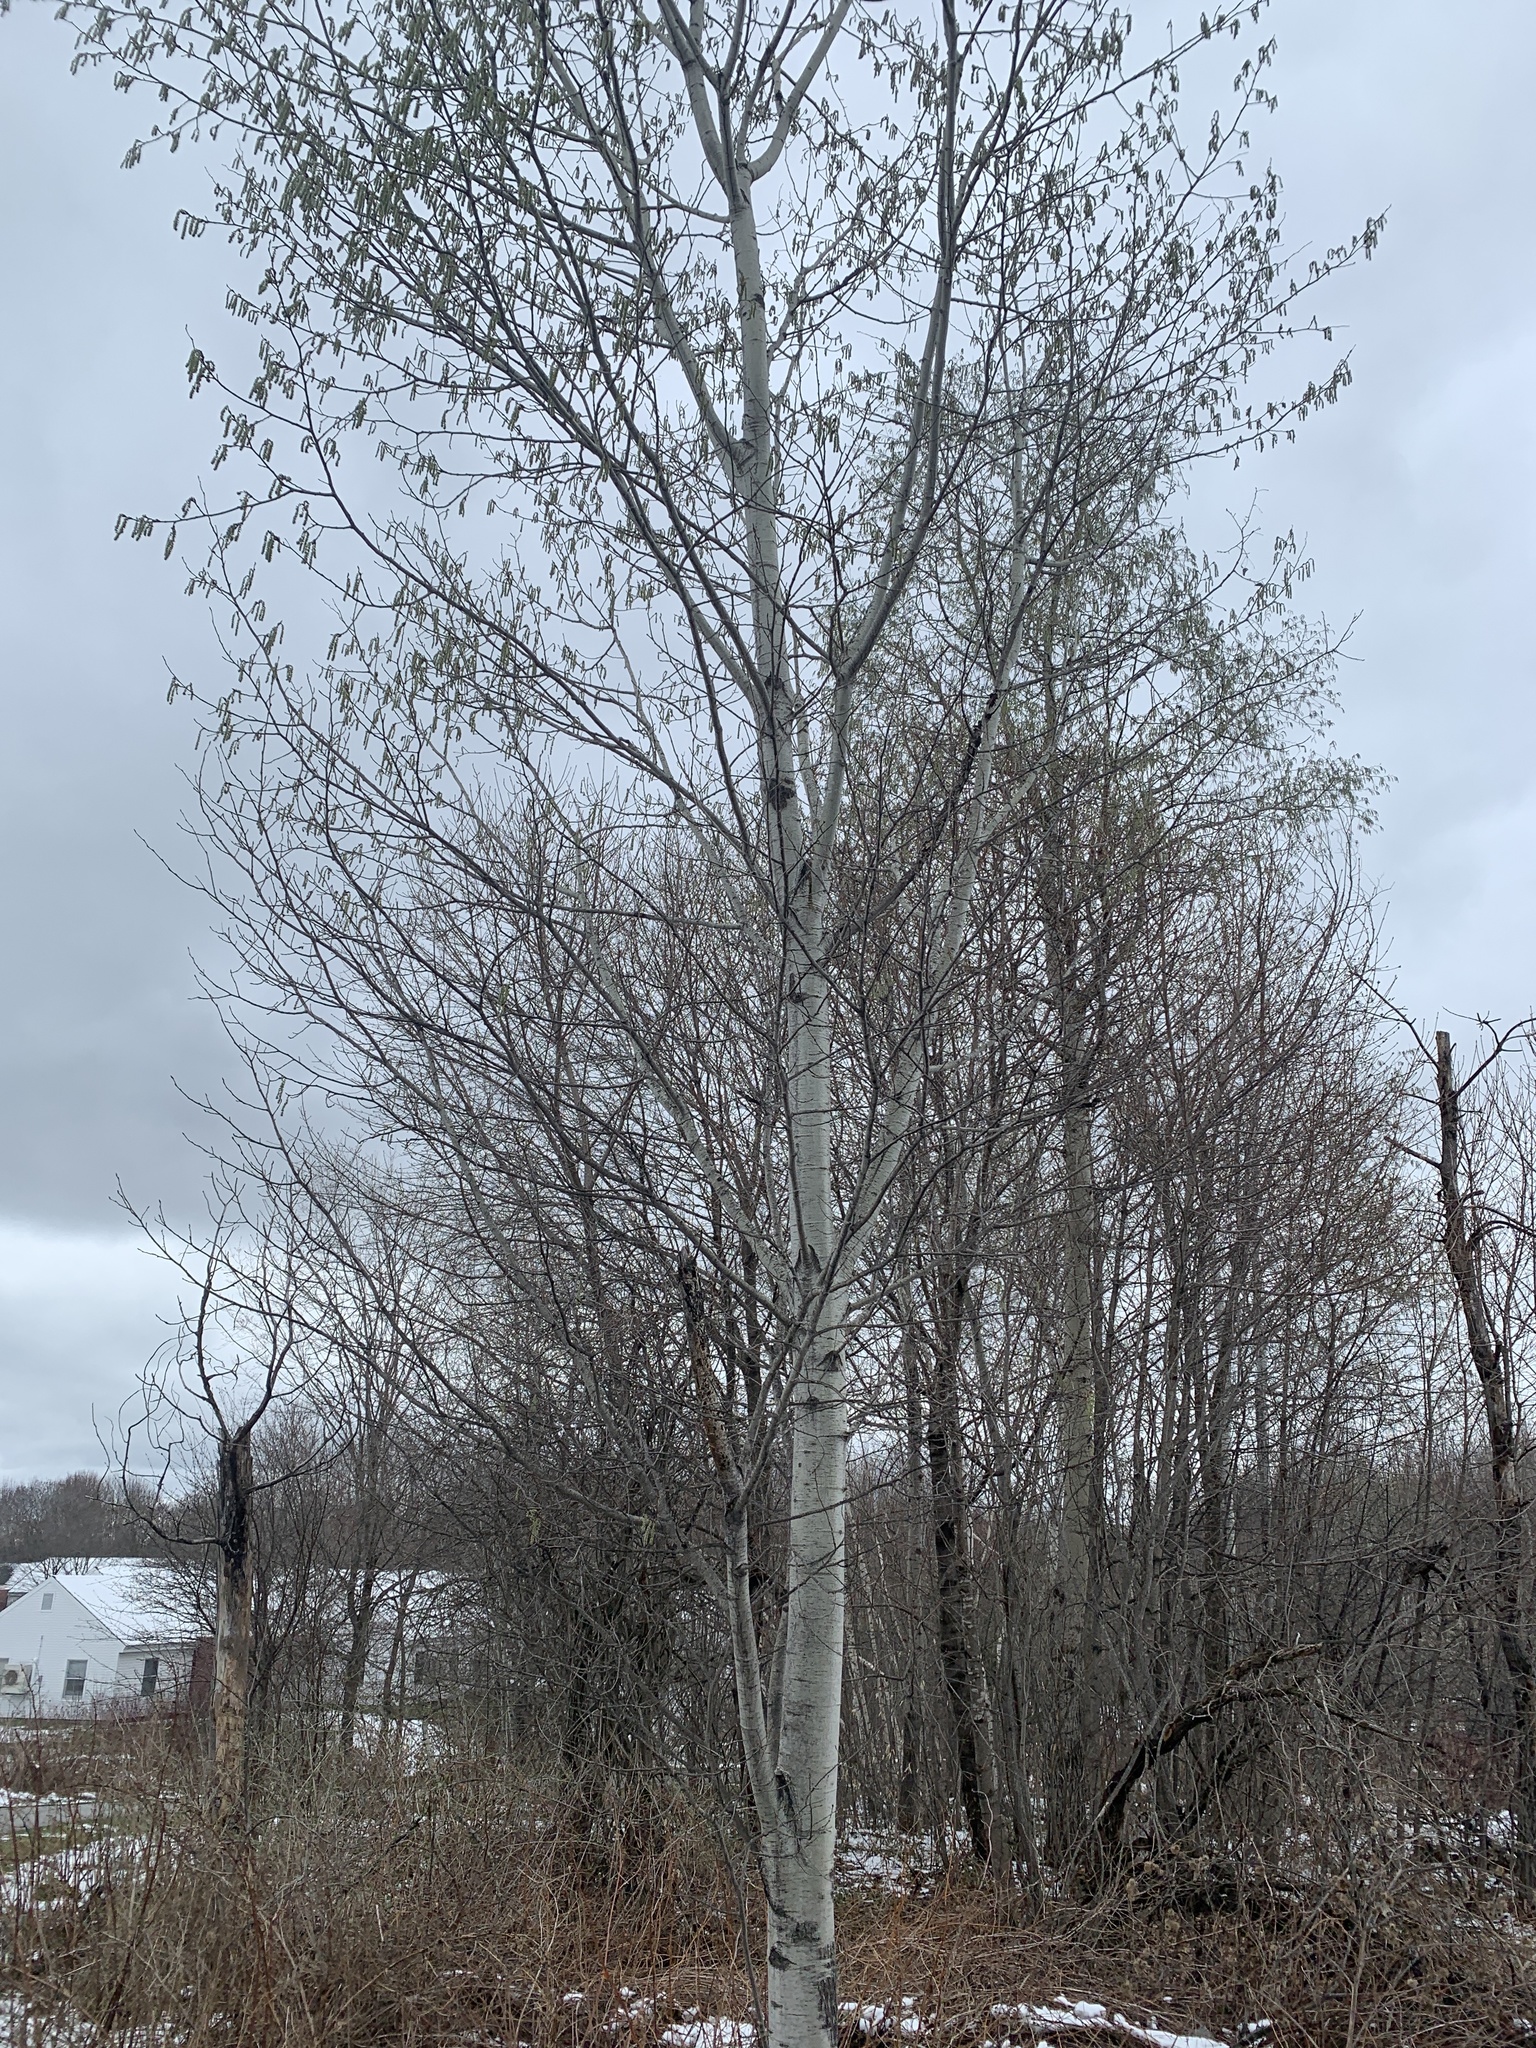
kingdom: Plantae
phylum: Tracheophyta
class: Magnoliopsida
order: Malpighiales
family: Salicaceae
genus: Populus
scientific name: Populus tremuloides
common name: Quaking aspen
